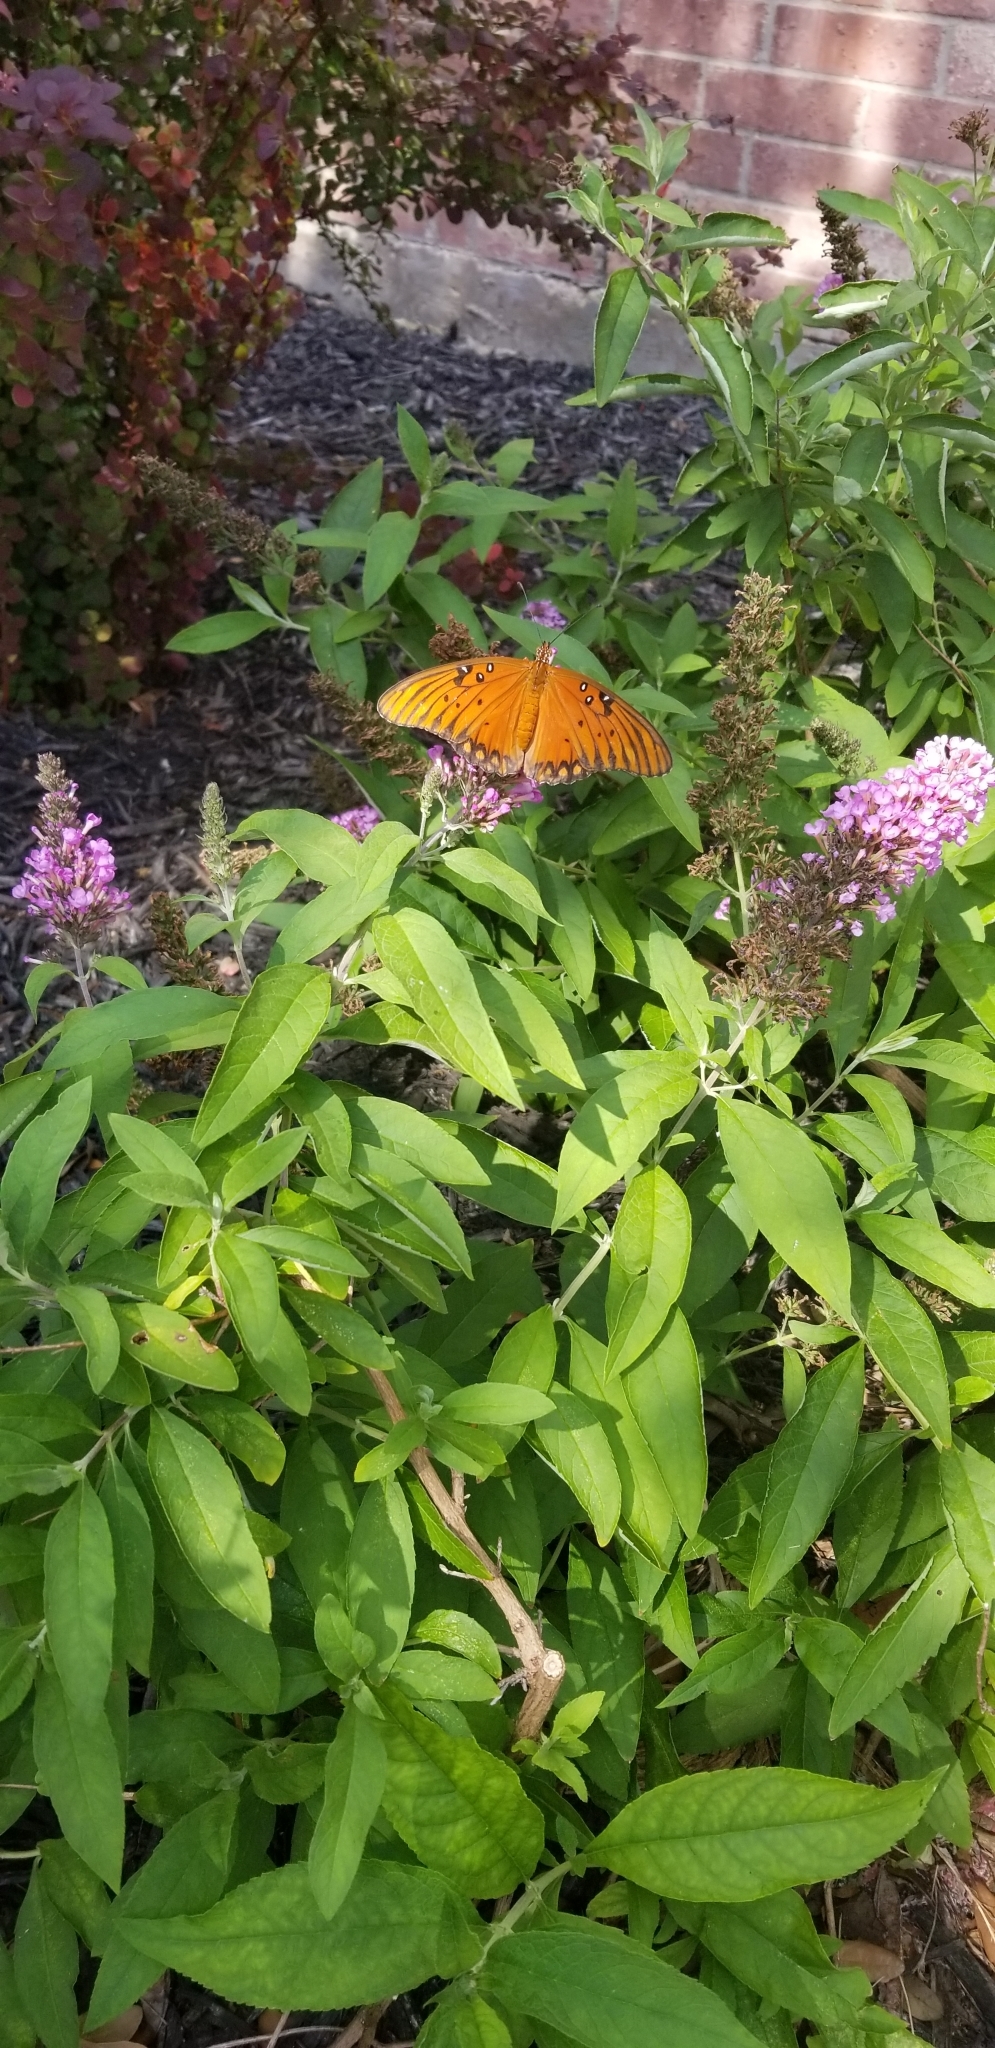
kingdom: Animalia
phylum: Arthropoda
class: Insecta
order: Lepidoptera
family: Nymphalidae
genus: Dione
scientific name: Dione vanillae
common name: Gulf fritillary
